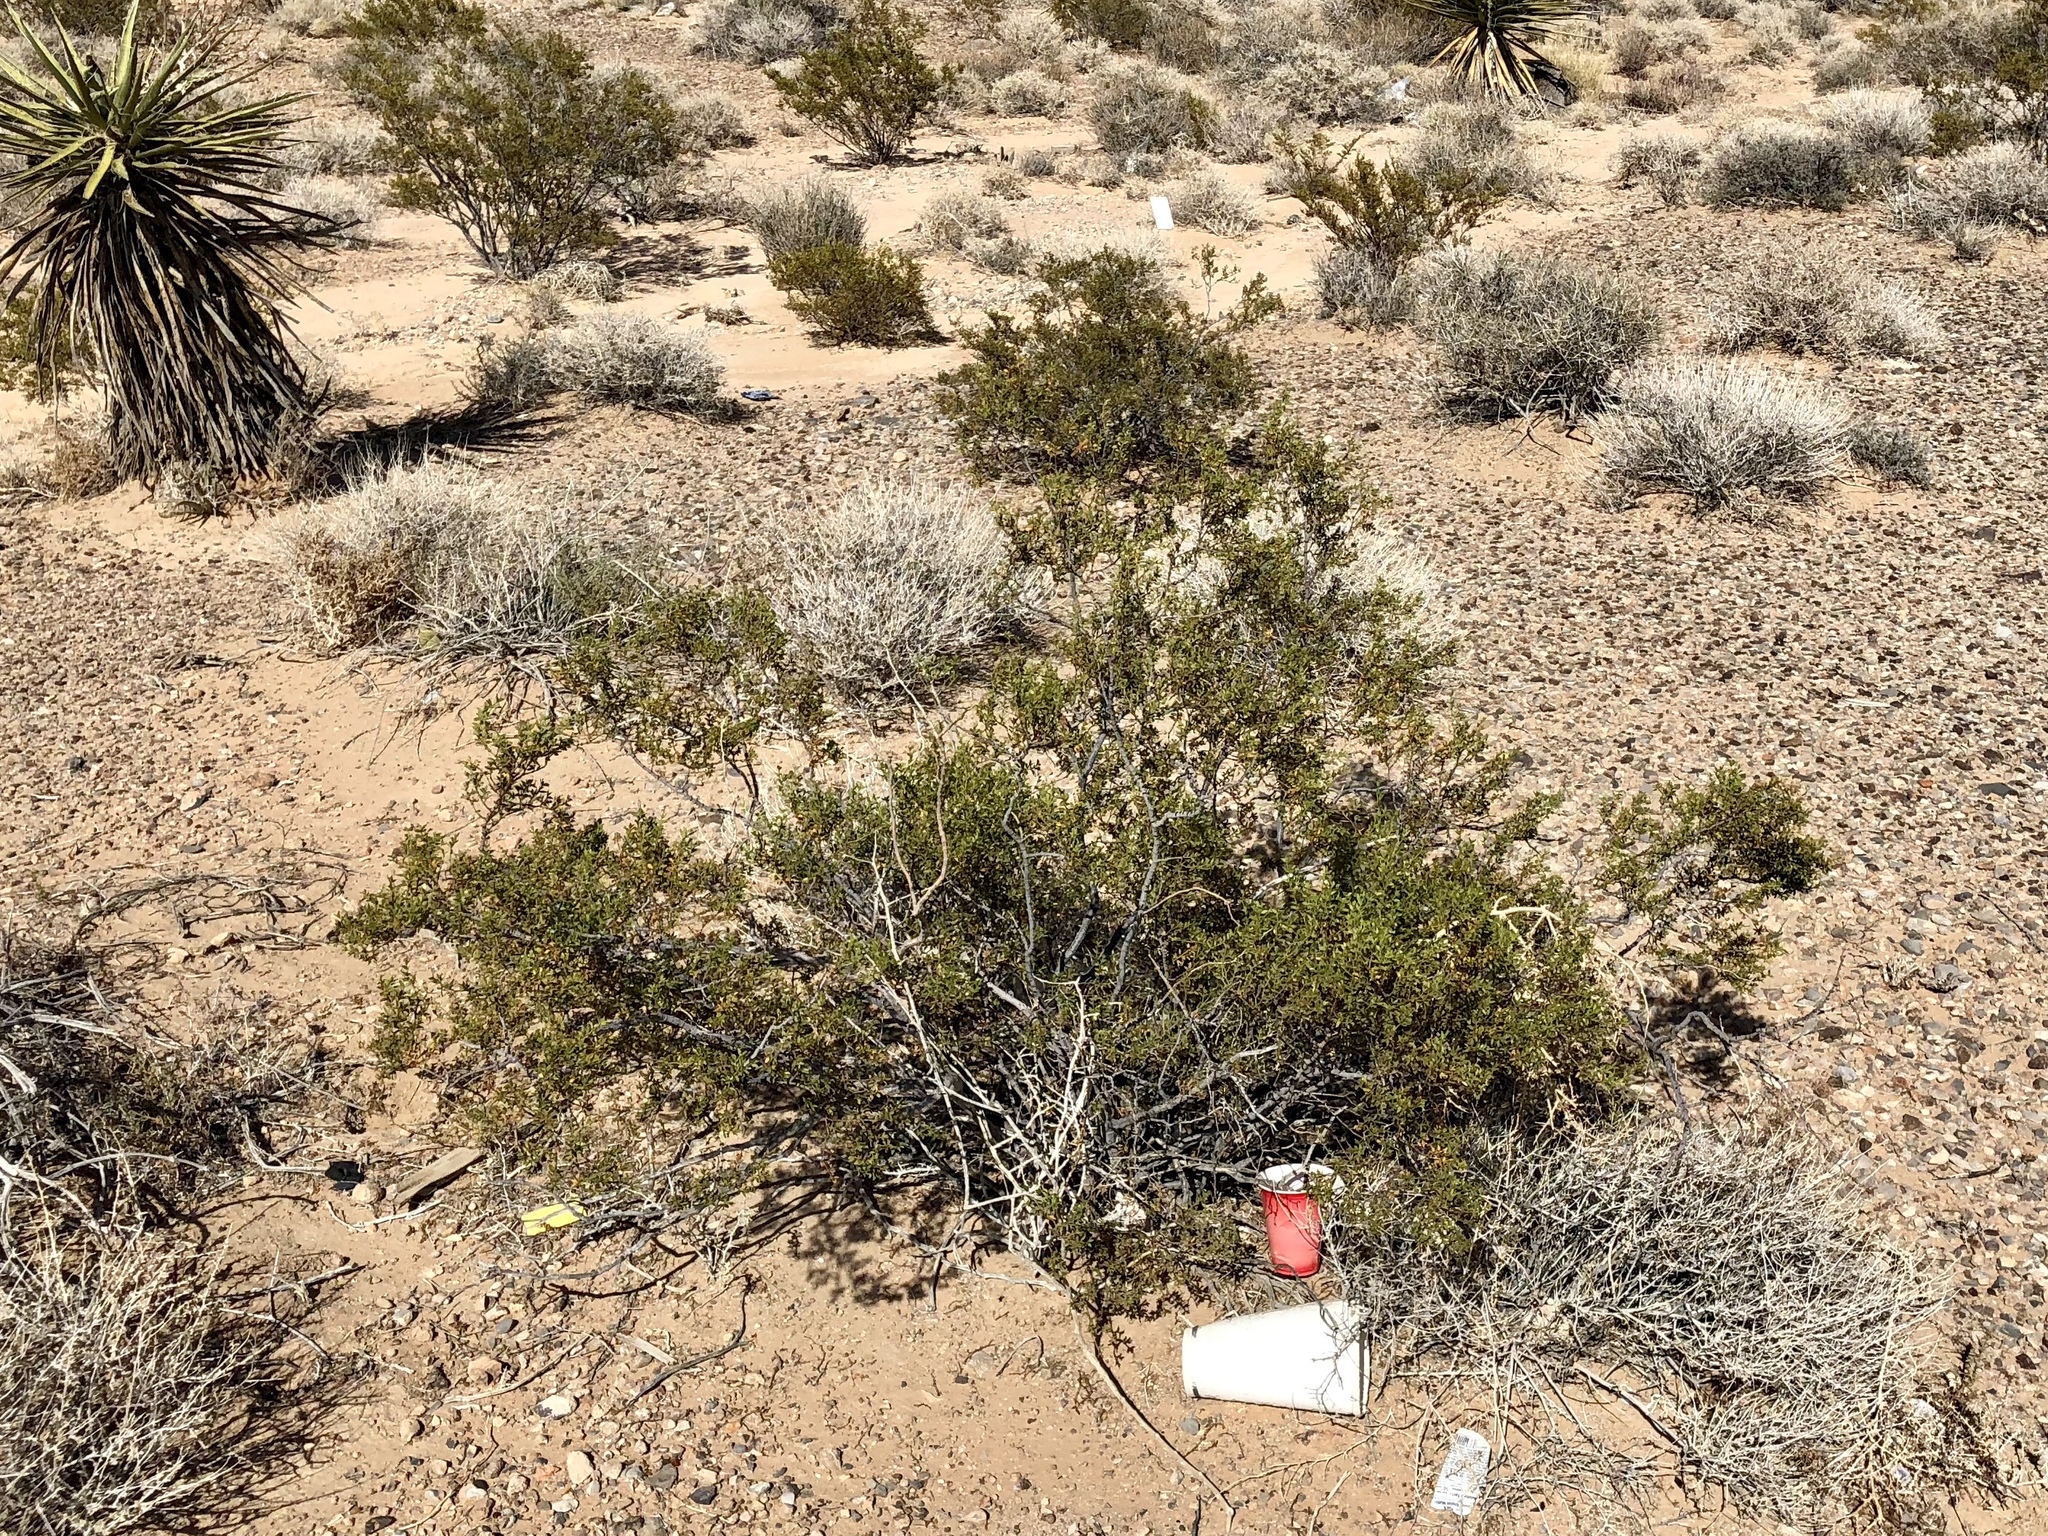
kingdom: Plantae
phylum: Tracheophyta
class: Magnoliopsida
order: Zygophyllales
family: Zygophyllaceae
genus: Larrea
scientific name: Larrea tridentata
